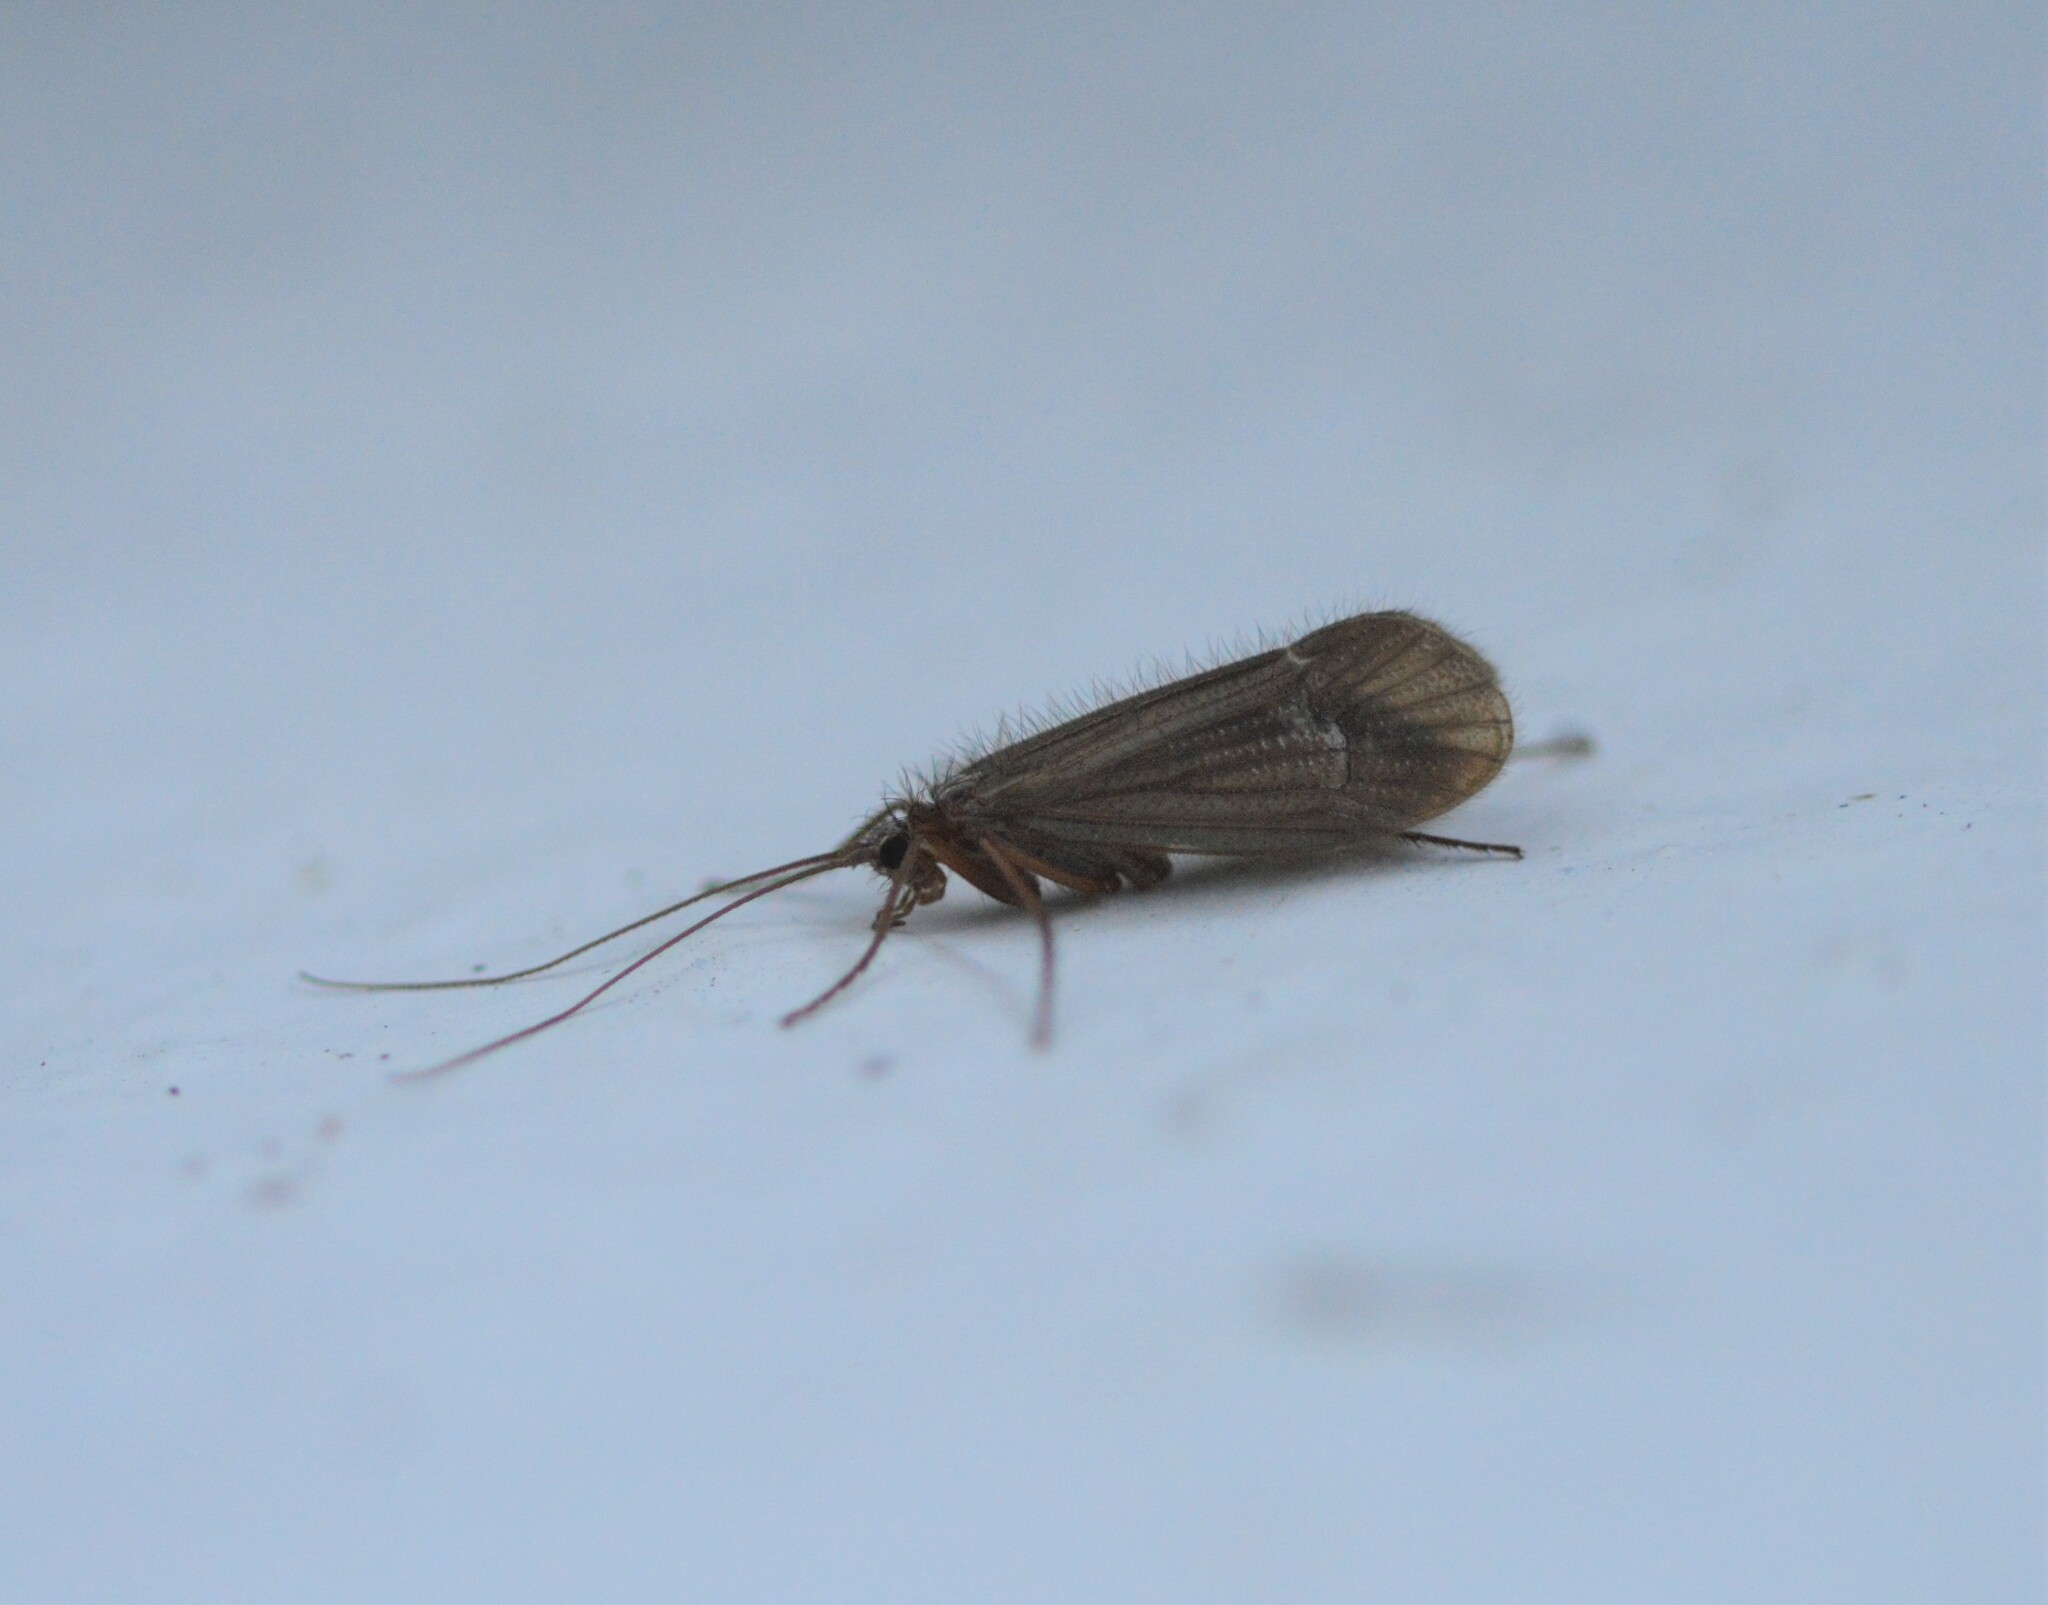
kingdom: Animalia
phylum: Arthropoda
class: Insecta
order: Trichoptera
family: Limnephilidae
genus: Chaetopteryx
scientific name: Chaetopteryx villosa
